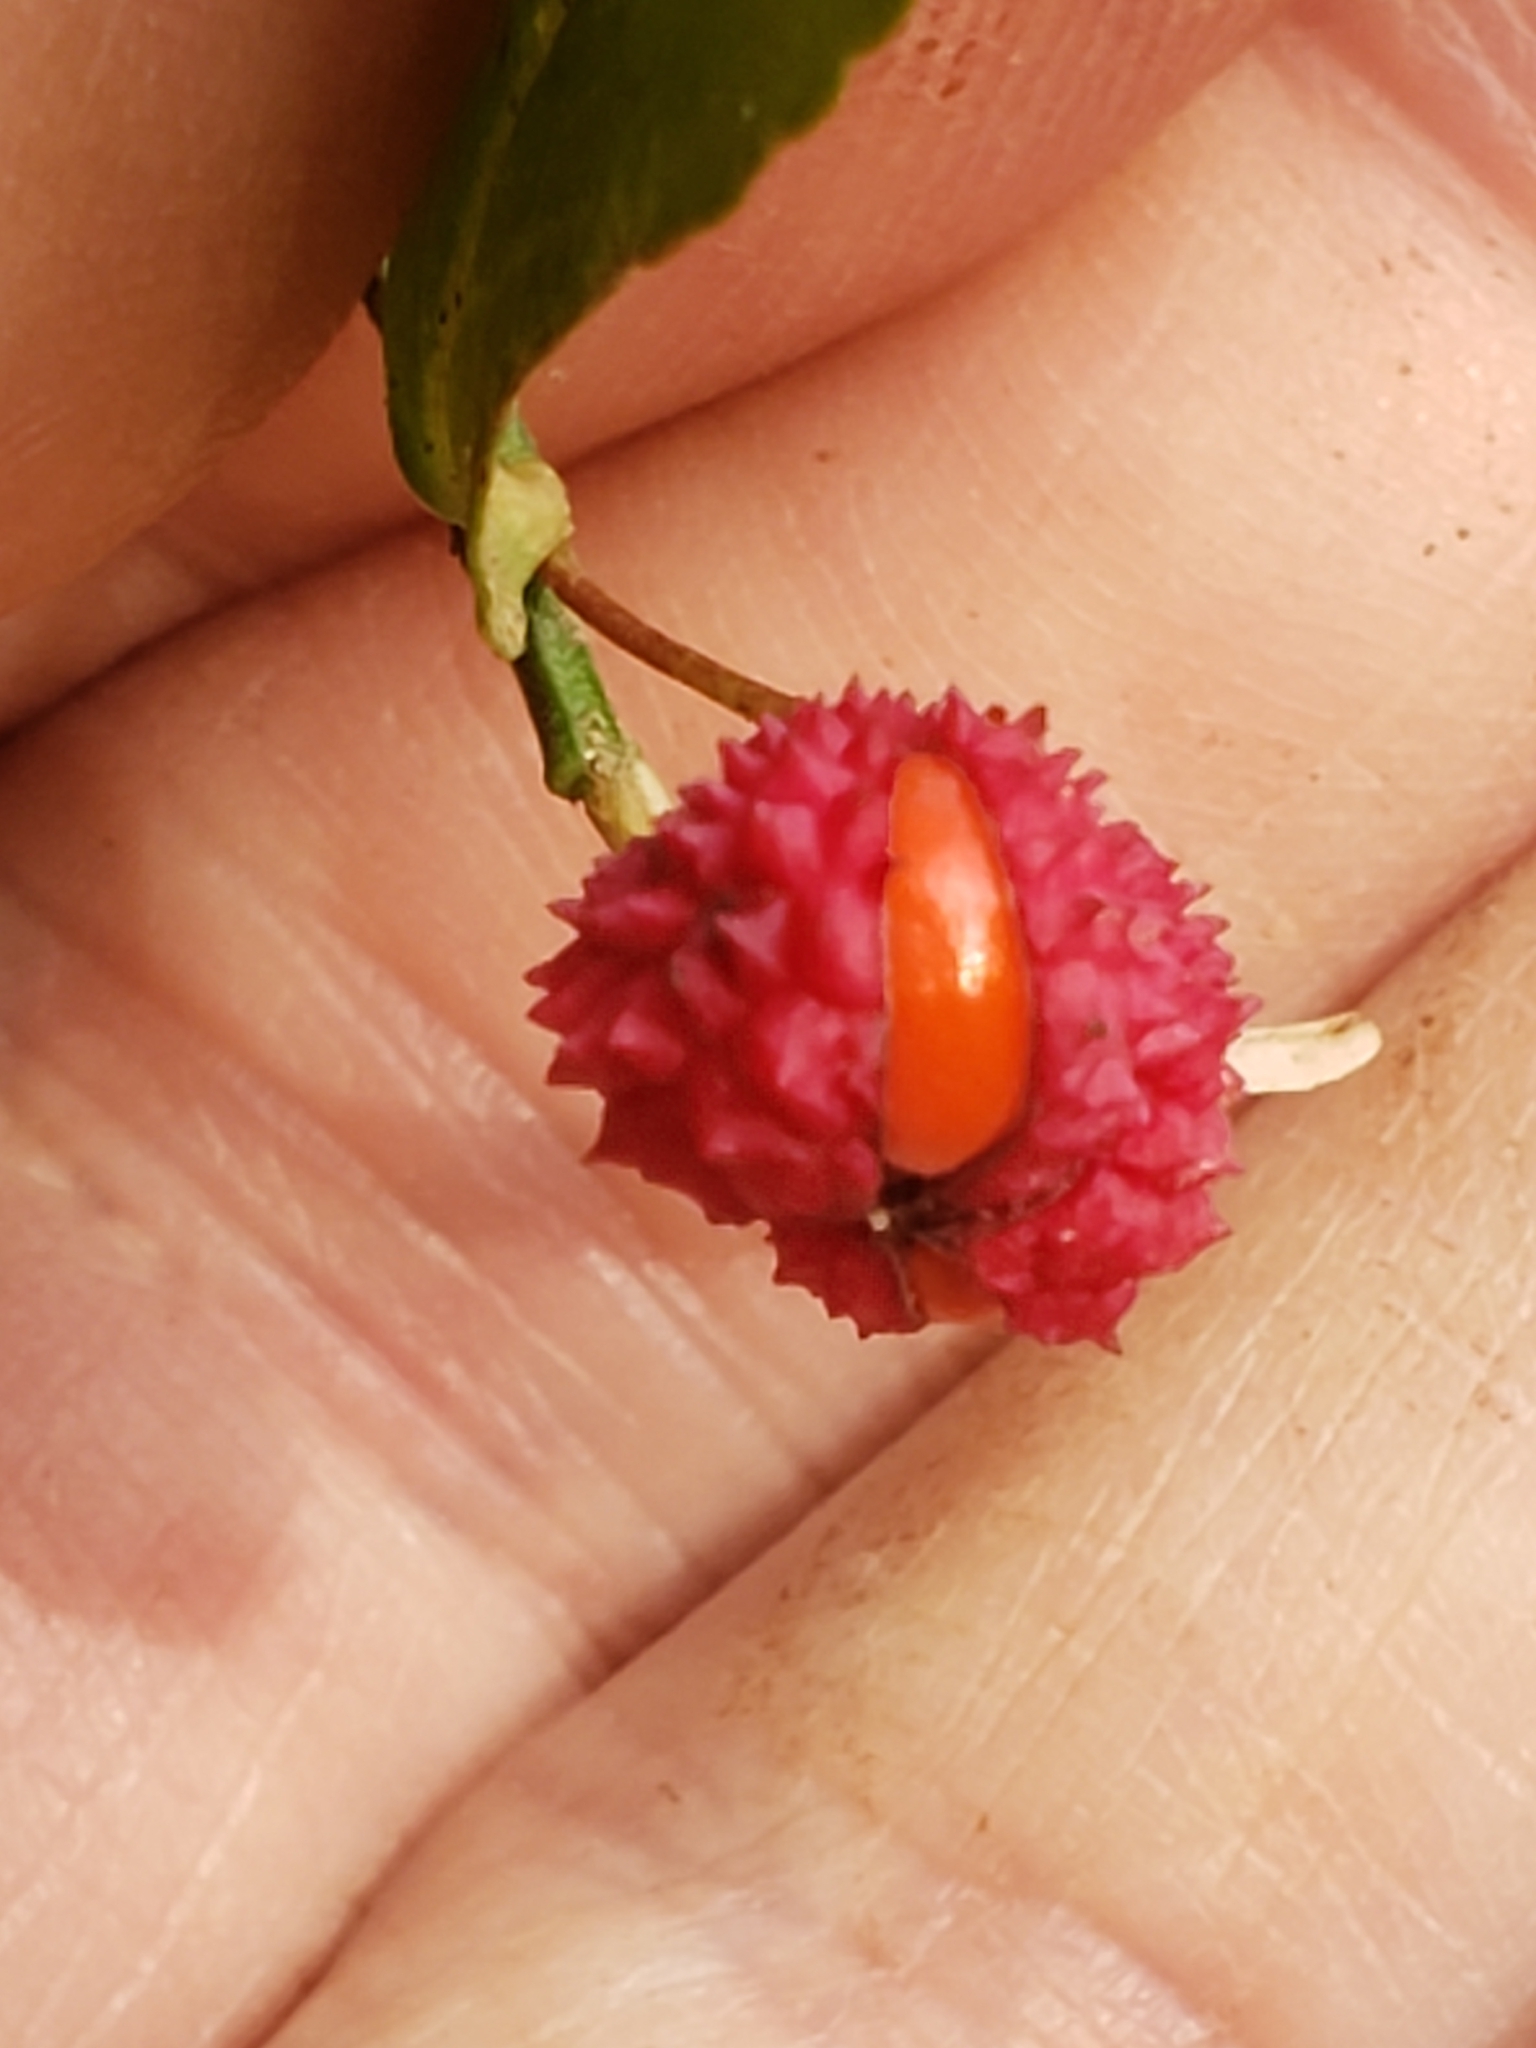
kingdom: Plantae
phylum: Tracheophyta
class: Magnoliopsida
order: Celastrales
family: Celastraceae
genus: Euonymus
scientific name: Euonymus americanus
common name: Bursting-heart
